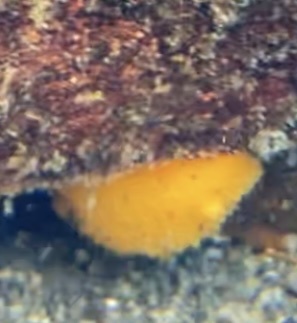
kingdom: Animalia
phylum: Mollusca
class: Gastropoda
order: Nudibranchia
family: Dorididae
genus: Doris
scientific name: Doris montereyensis
